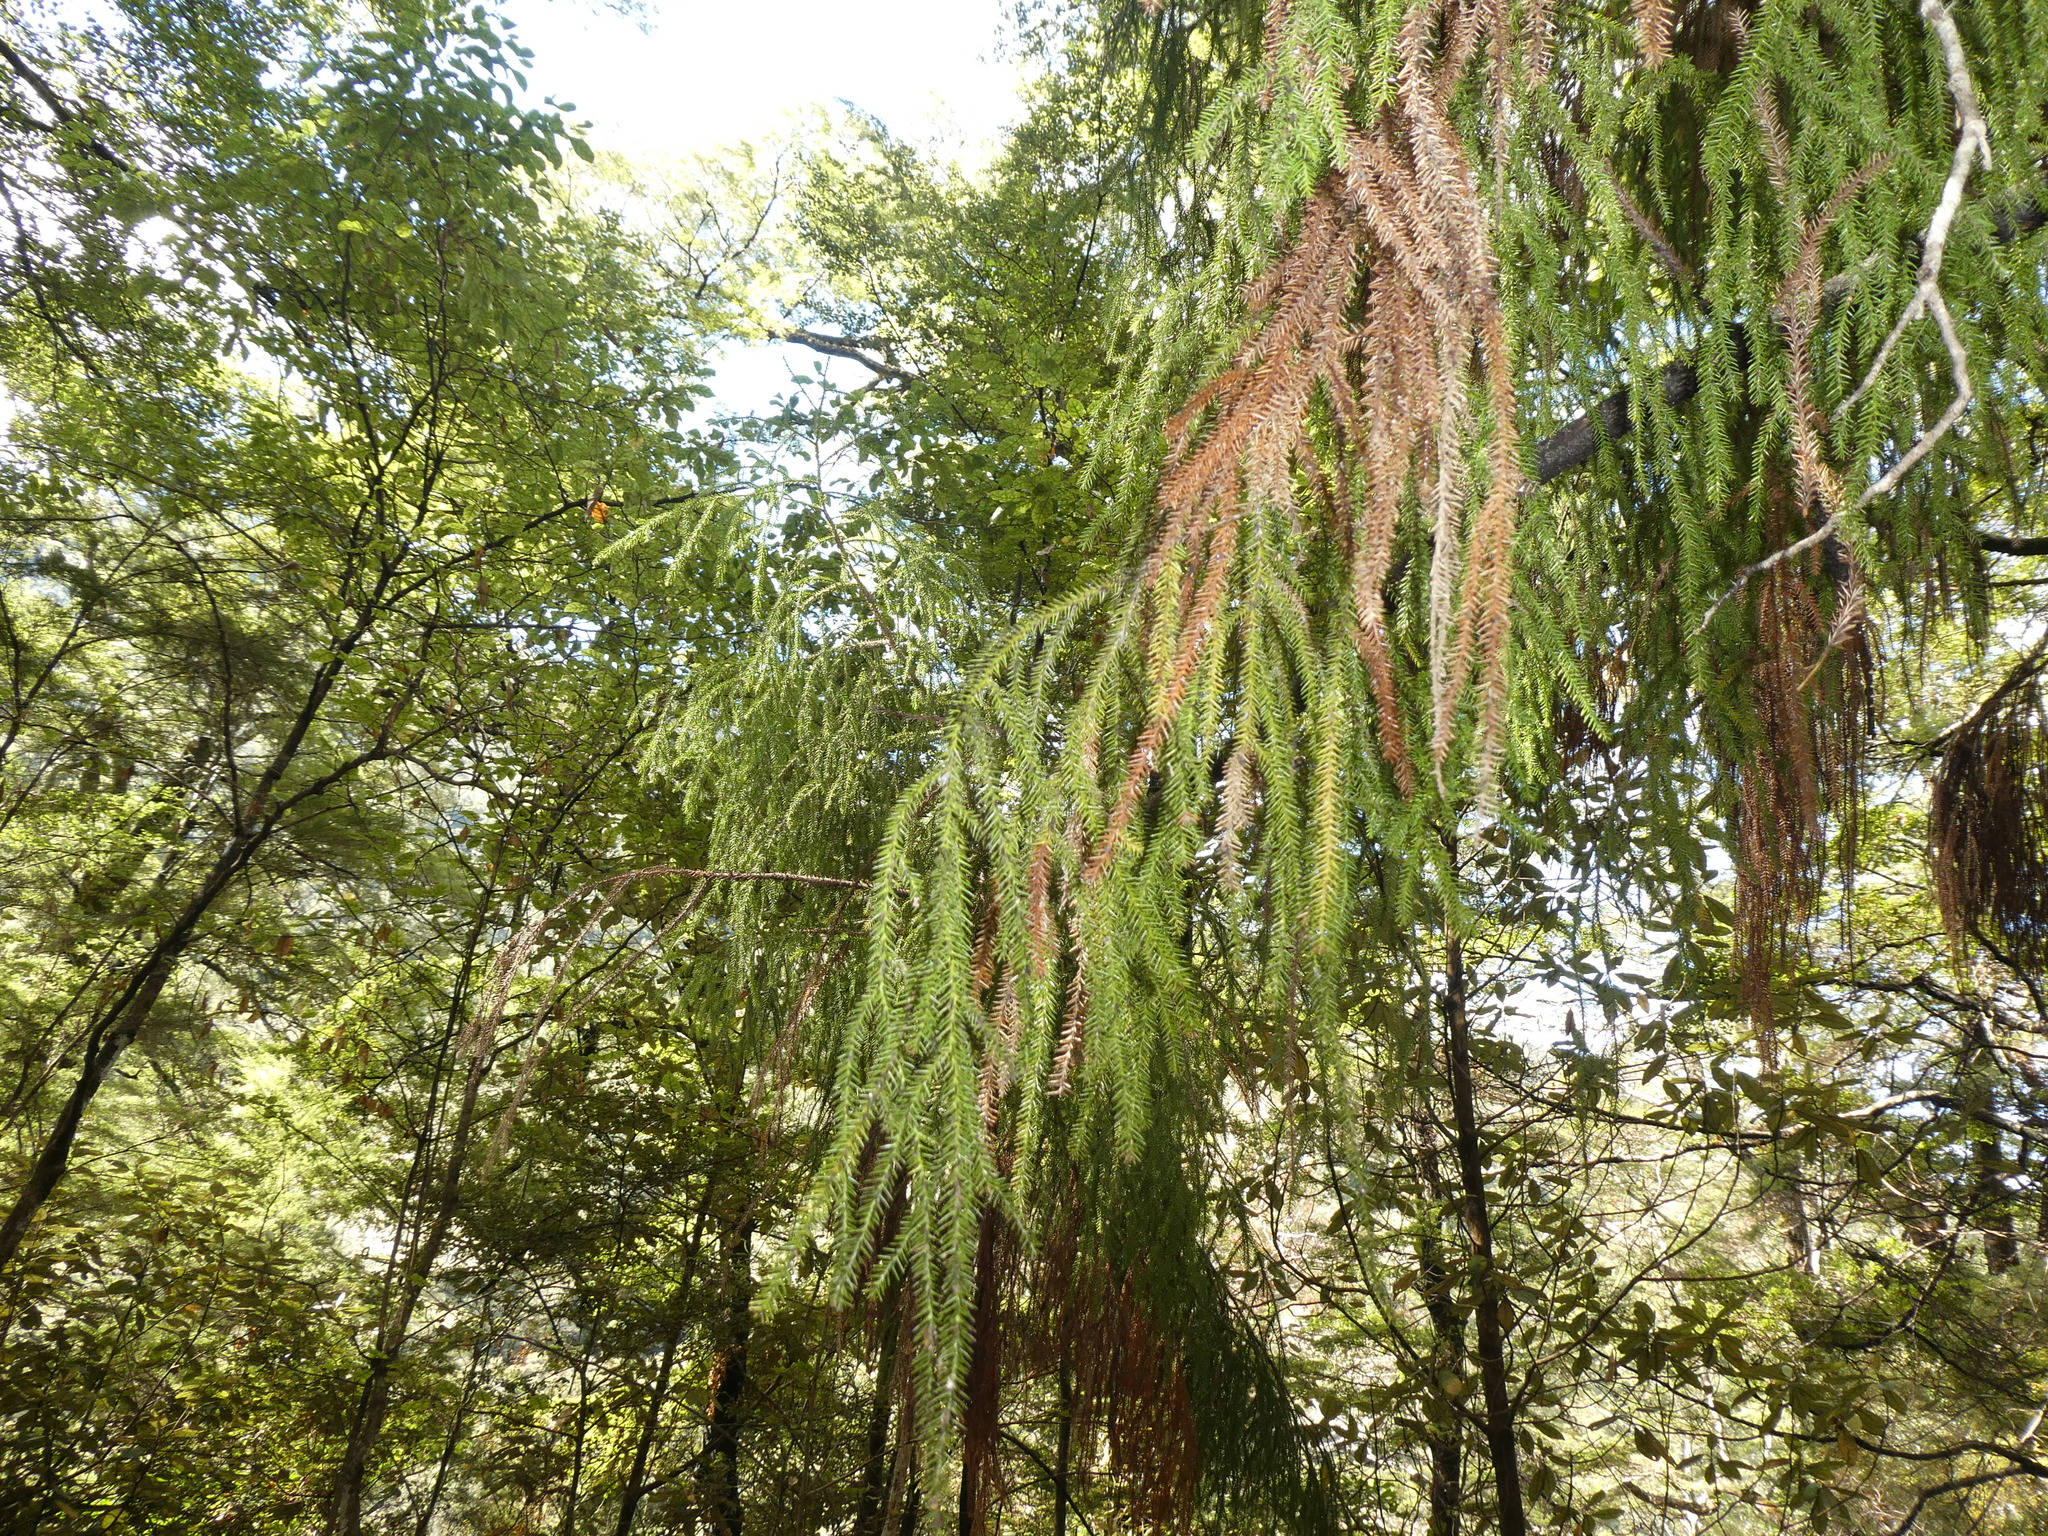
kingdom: Plantae
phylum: Tracheophyta
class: Pinopsida
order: Pinales
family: Podocarpaceae
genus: Dacrydium
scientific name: Dacrydium cupressinum
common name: Red pine
